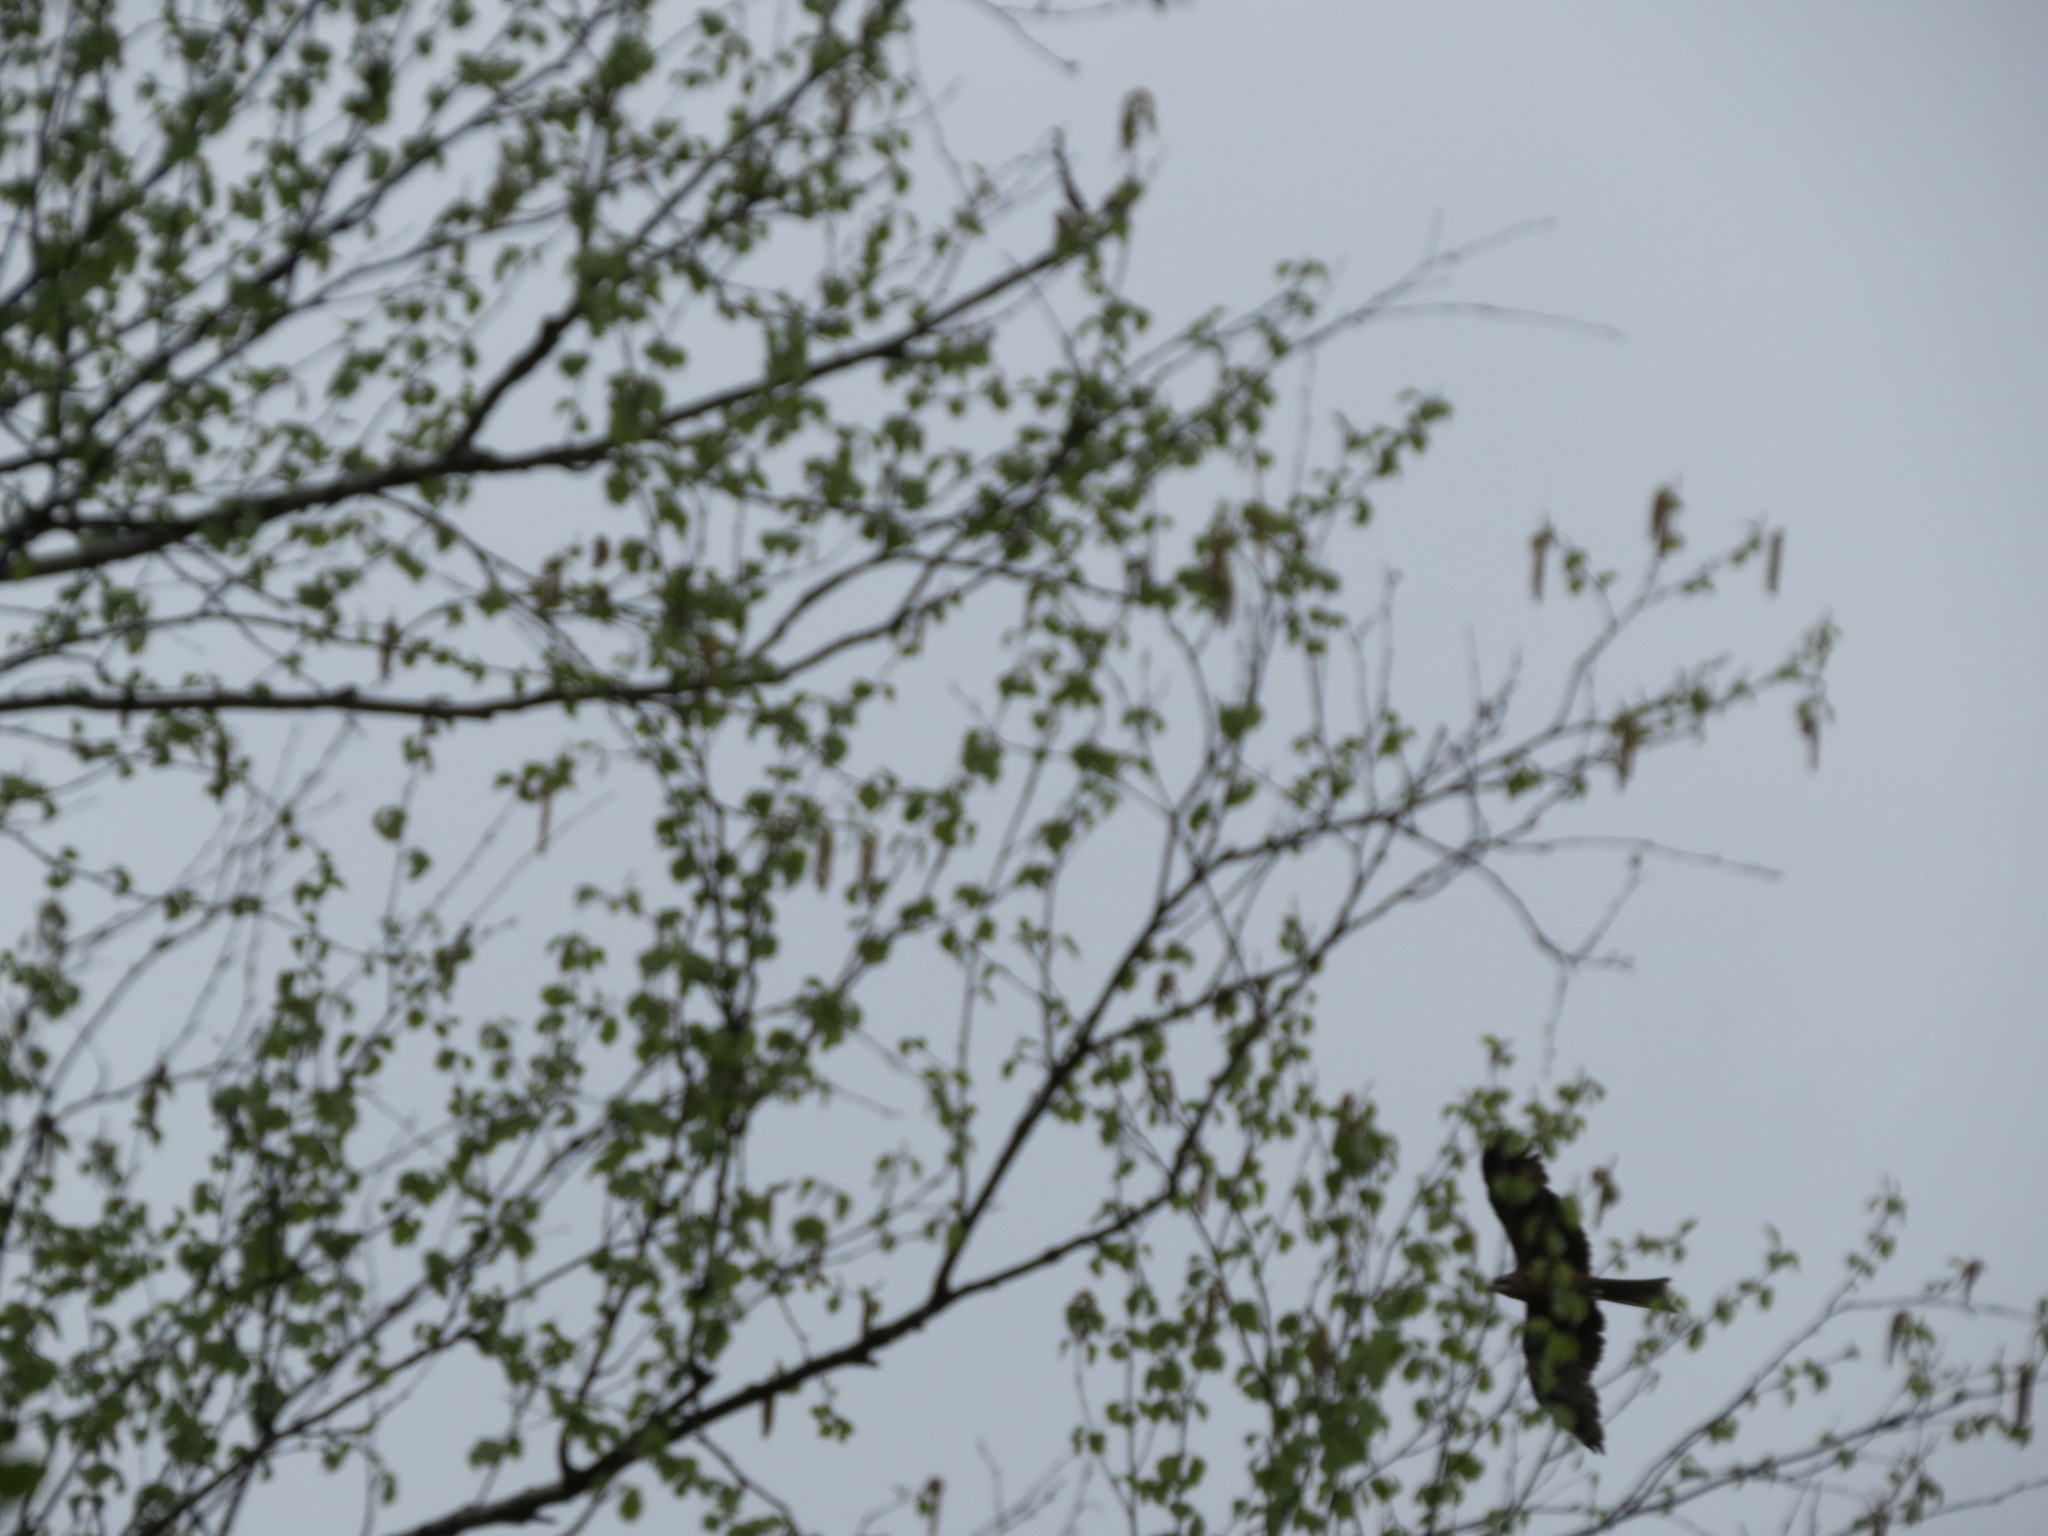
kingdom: Animalia
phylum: Chordata
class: Aves
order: Accipitriformes
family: Accipitridae
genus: Milvus
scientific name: Milvus migrans
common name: Black kite
